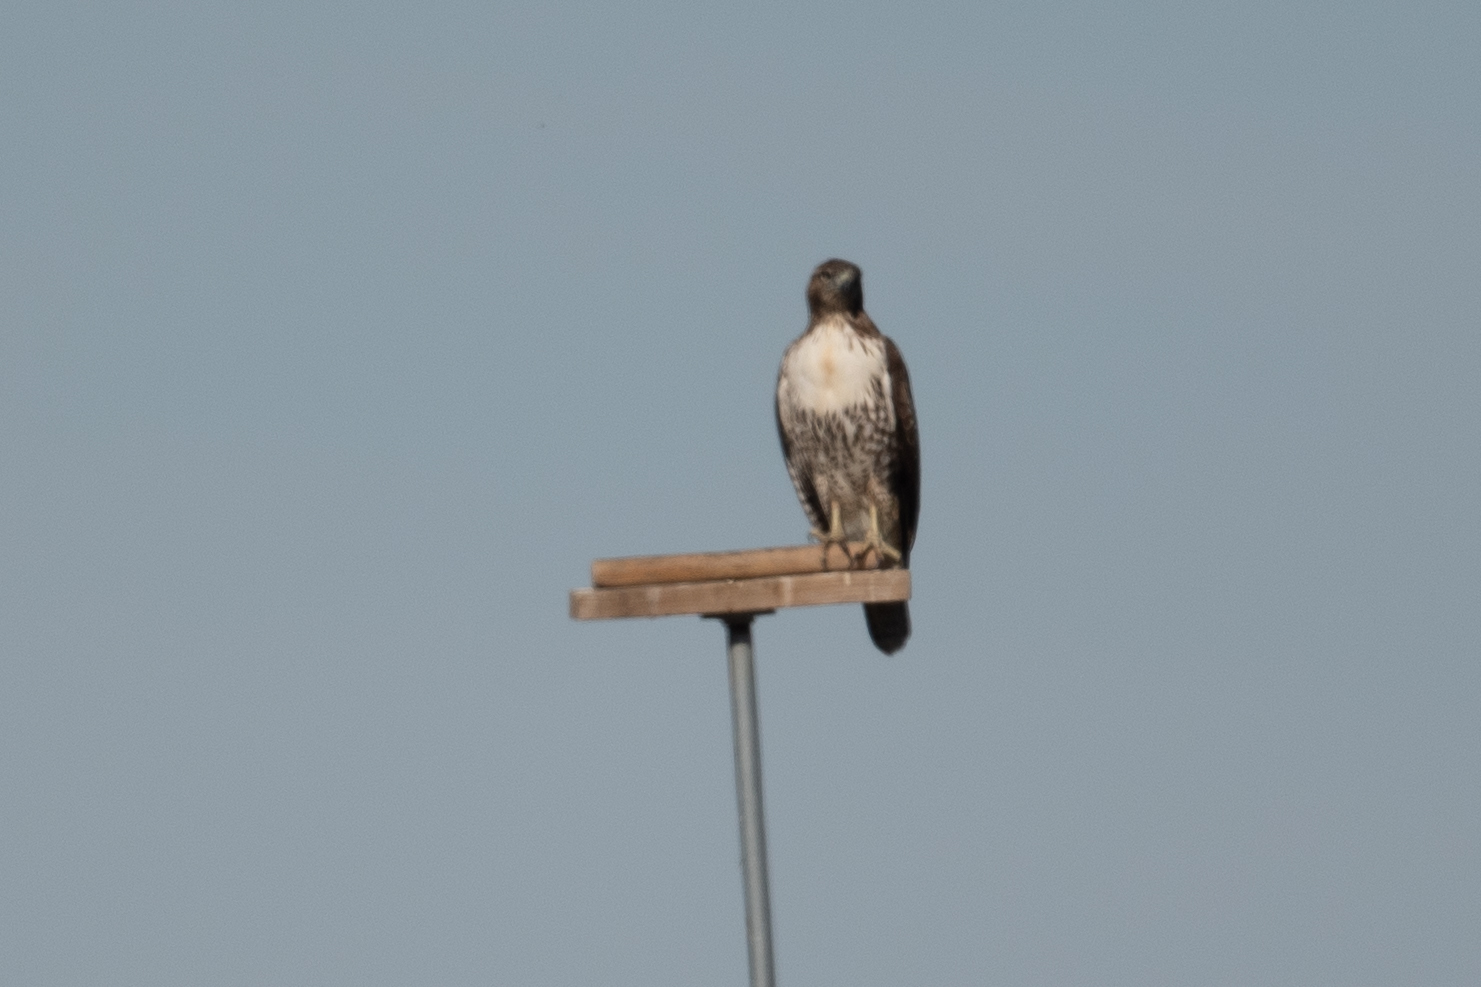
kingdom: Animalia
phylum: Chordata
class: Aves
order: Accipitriformes
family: Accipitridae
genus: Buteo
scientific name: Buteo jamaicensis
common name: Red-tailed hawk
